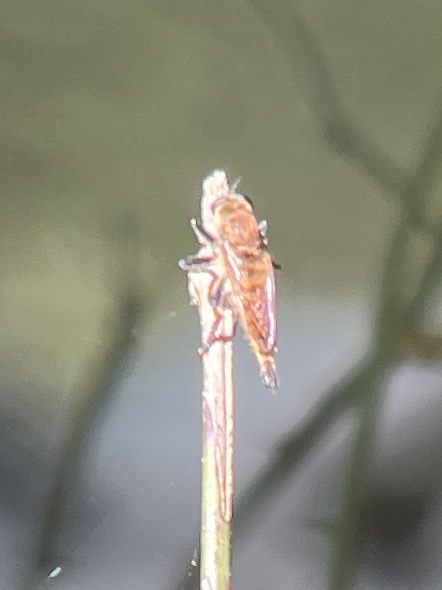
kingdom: Animalia
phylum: Arthropoda
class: Insecta
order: Diptera
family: Asilidae
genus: Promachus
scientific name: Promachus rufipes
